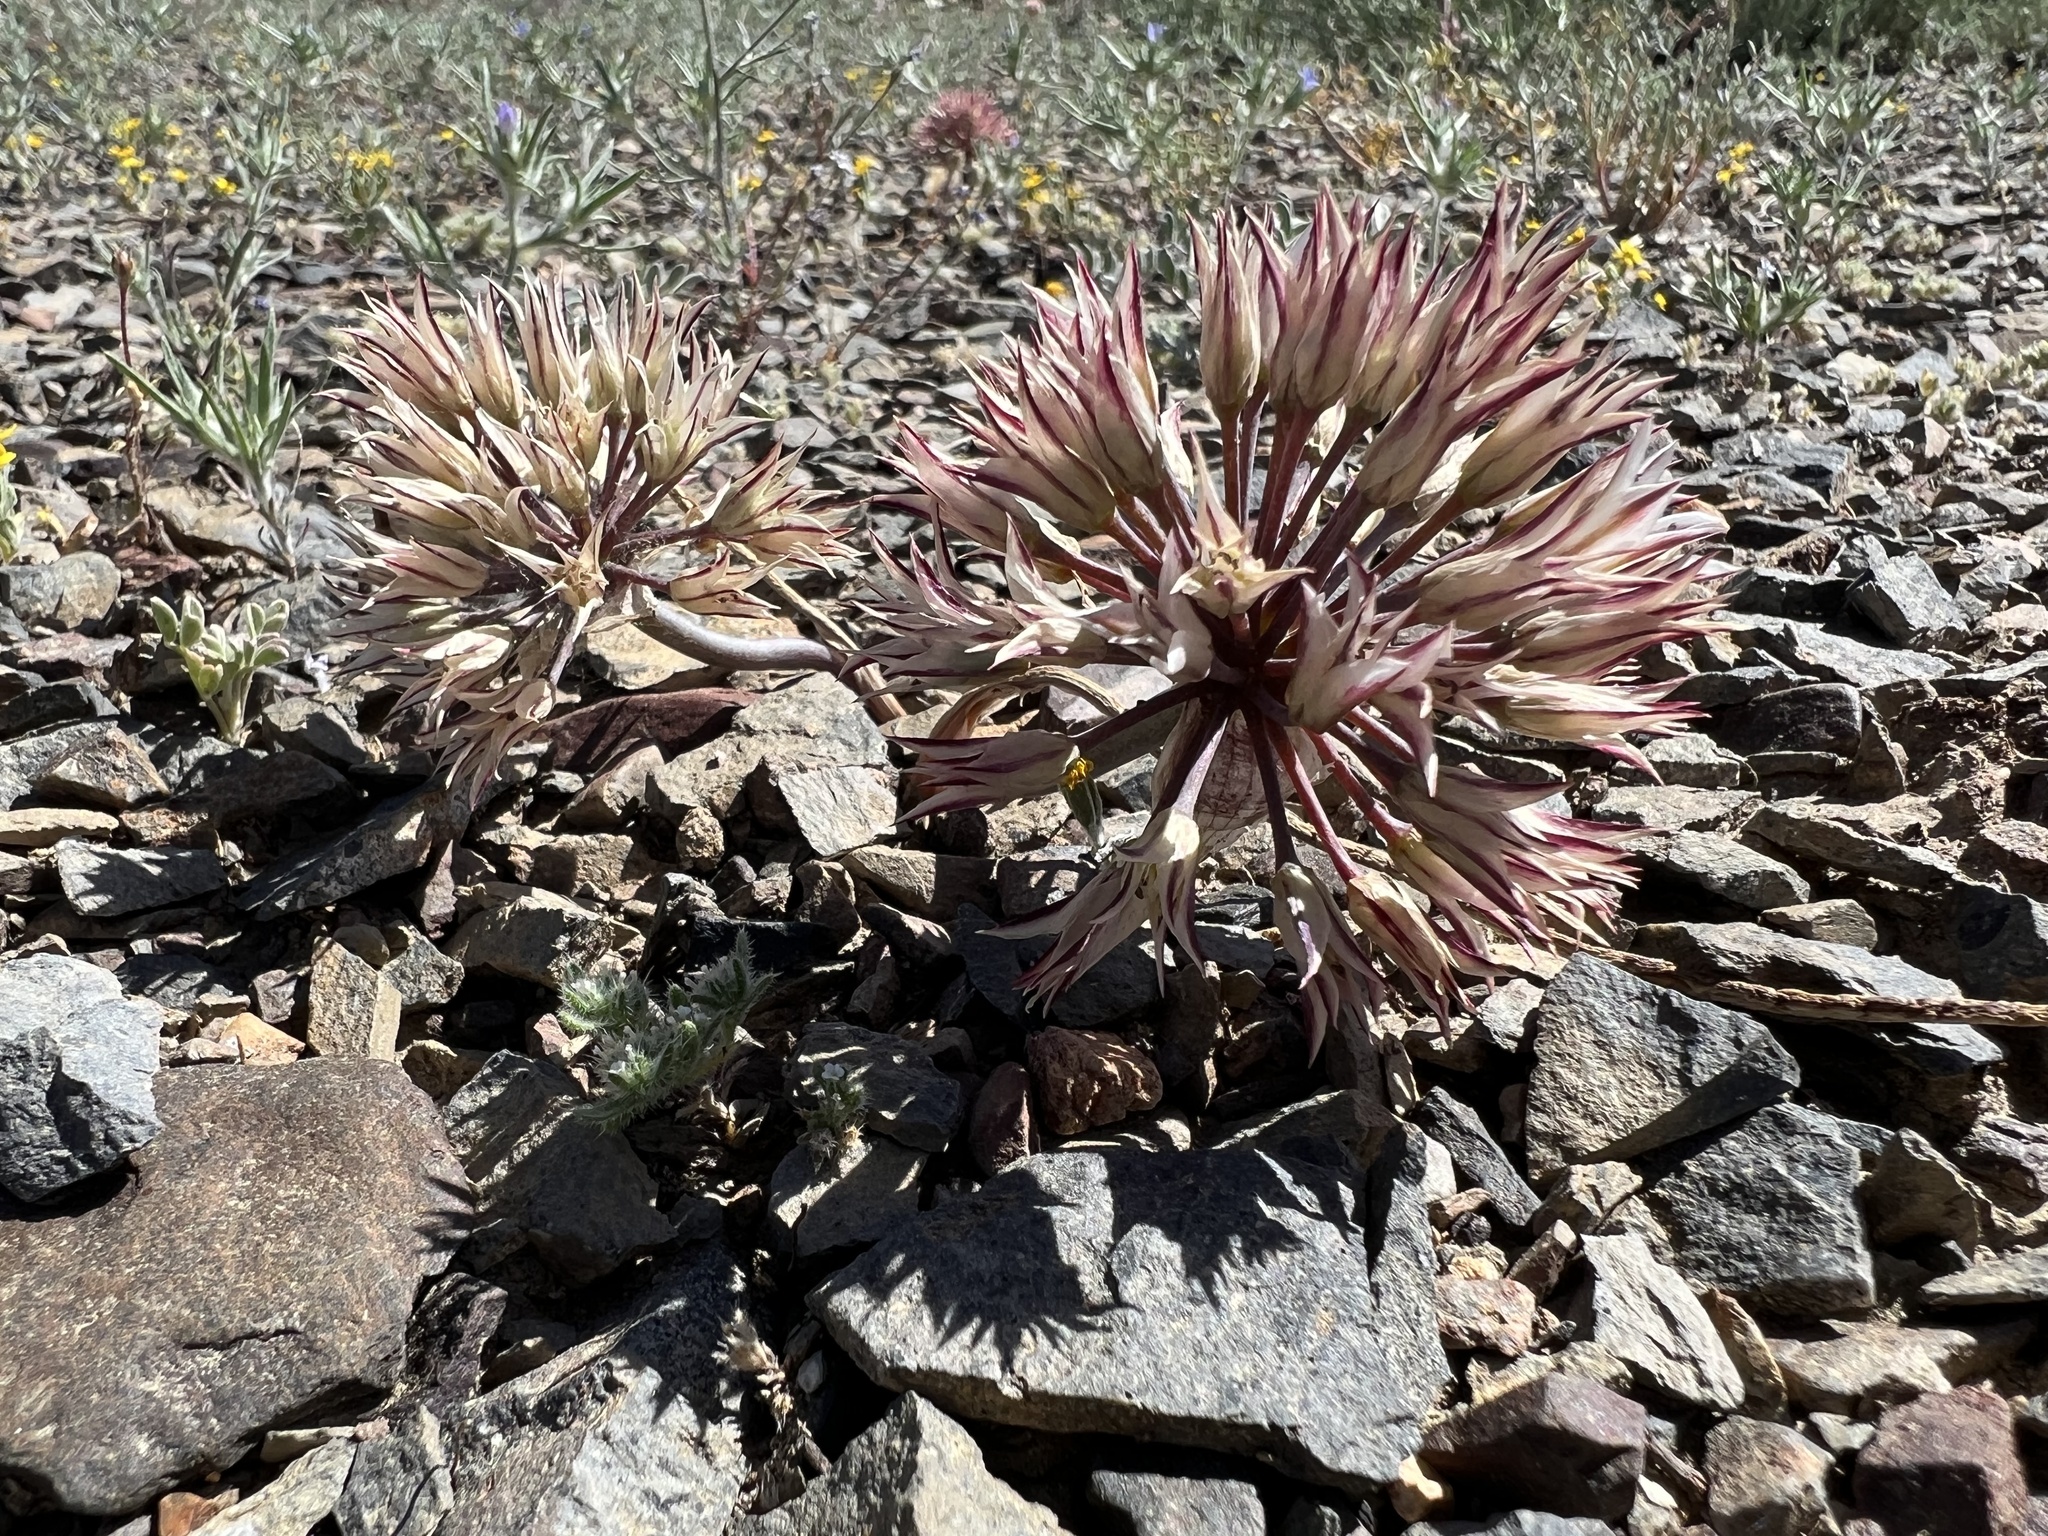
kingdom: Plantae
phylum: Tracheophyta
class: Liliopsida
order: Asparagales
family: Amaryllidaceae
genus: Allium
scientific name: Allium atrorubens
